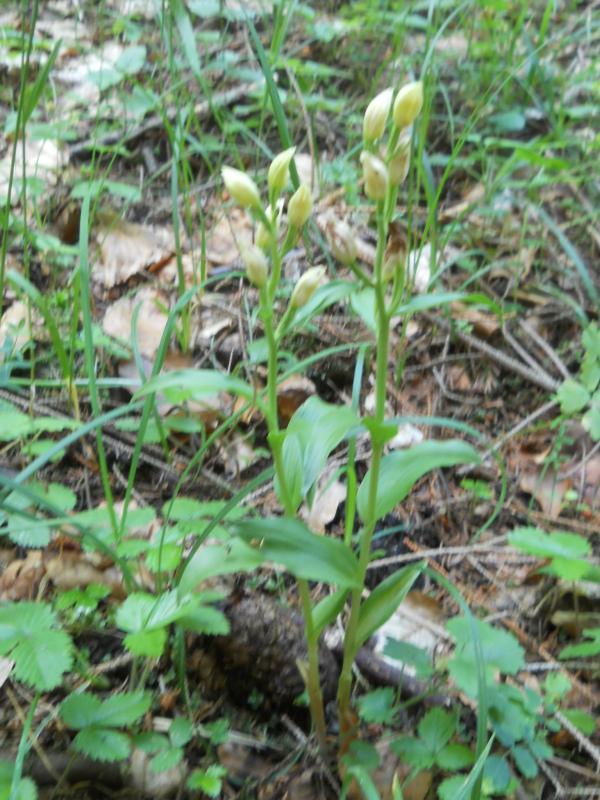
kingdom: Plantae
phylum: Tracheophyta
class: Liliopsida
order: Asparagales
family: Orchidaceae
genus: Cephalanthera
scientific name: Cephalanthera damasonium
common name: White helleborine
